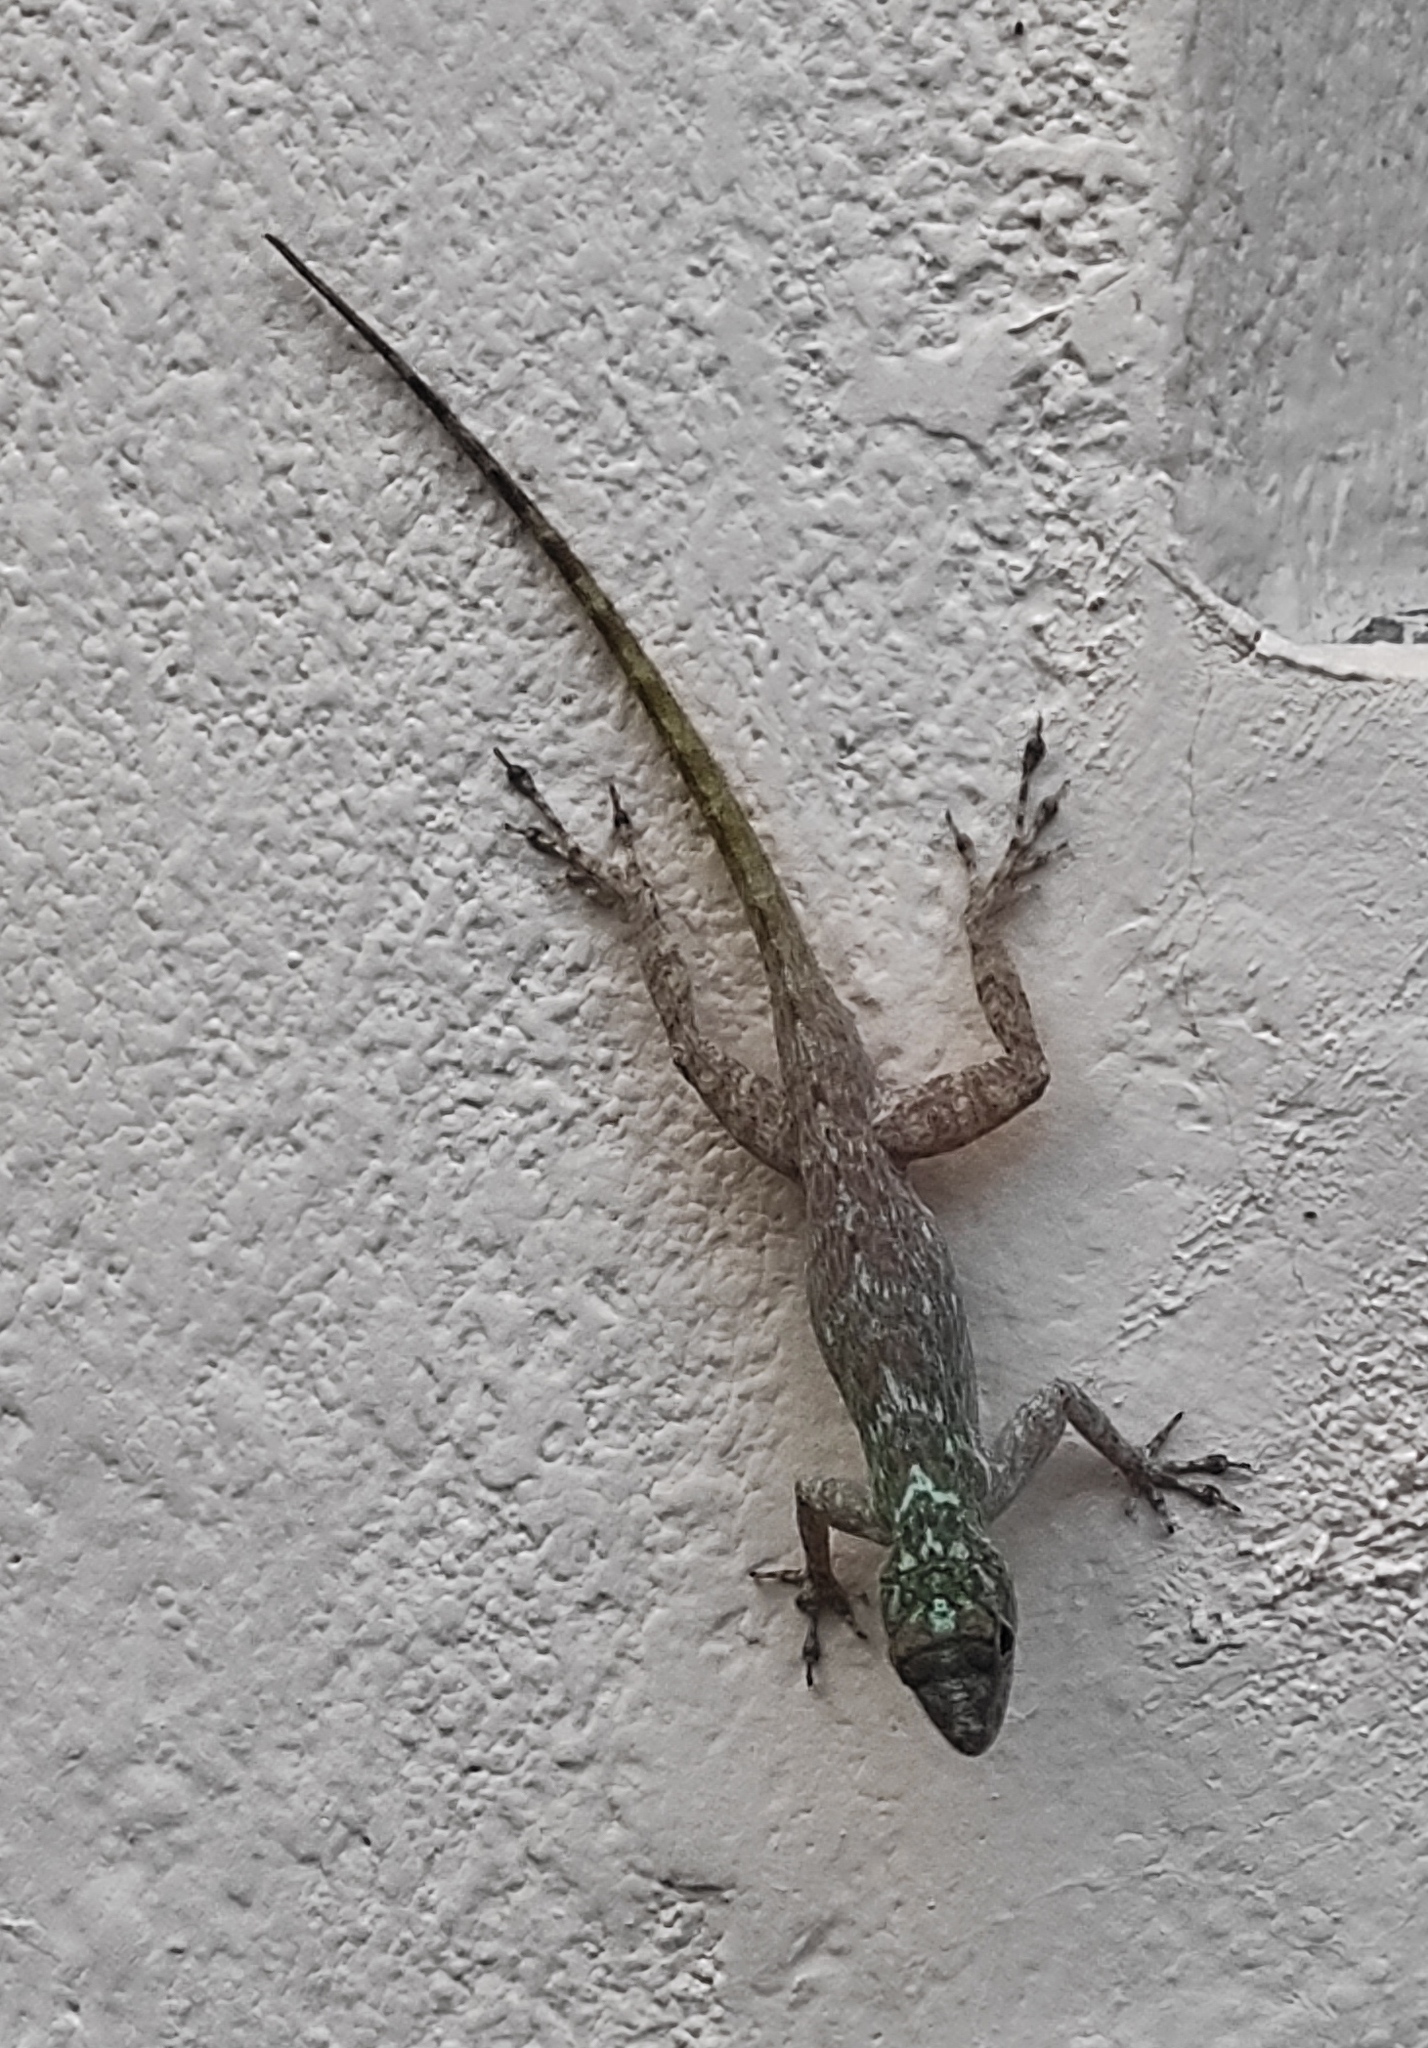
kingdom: Animalia
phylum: Chordata
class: Squamata
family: Dactyloidae
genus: Anolis
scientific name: Anolis dominicensis
